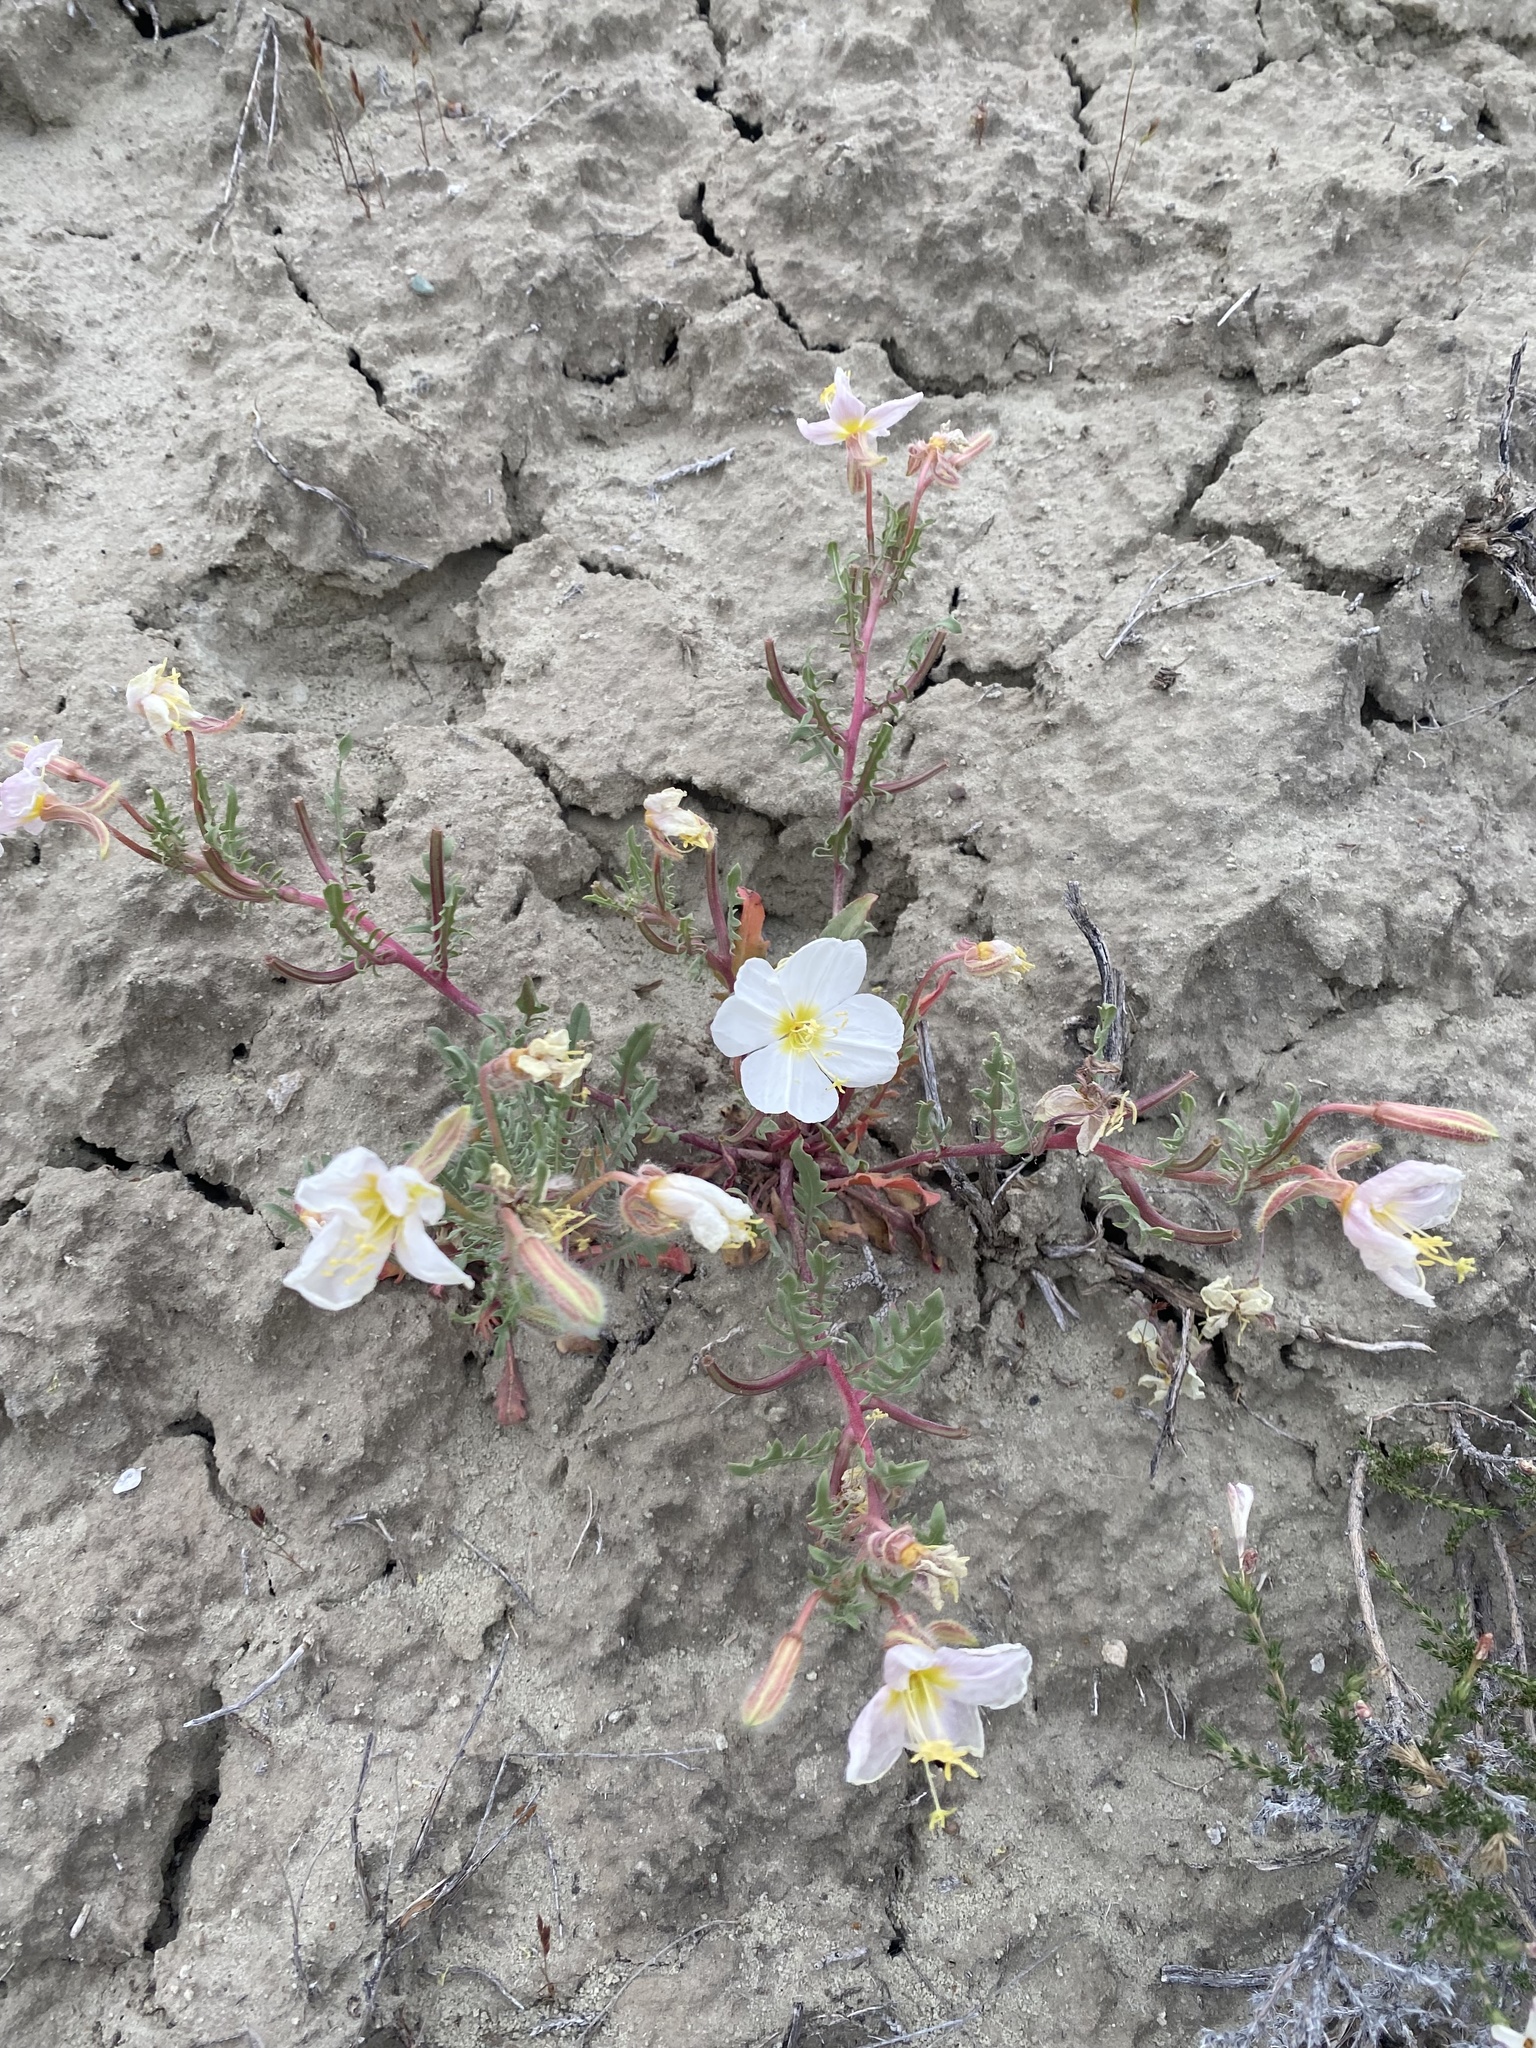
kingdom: Plantae
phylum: Tracheophyta
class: Magnoliopsida
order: Myrtales
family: Onagraceae
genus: Oenothera
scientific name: Oenothera pallida
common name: Pale evening-primrose
